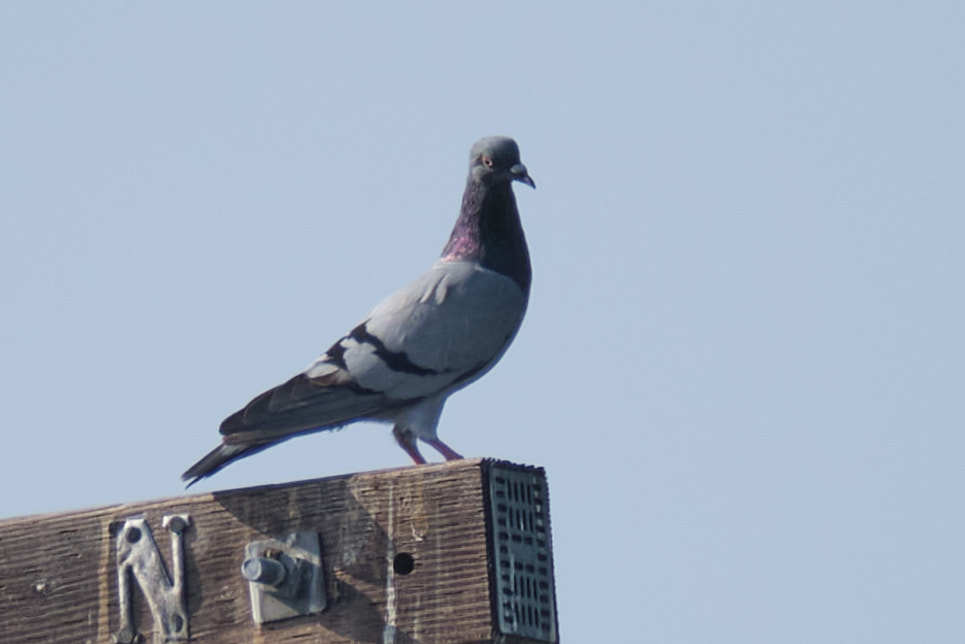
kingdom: Animalia
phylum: Chordata
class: Aves
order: Columbiformes
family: Columbidae
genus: Columba
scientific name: Columba livia
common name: Rock pigeon
